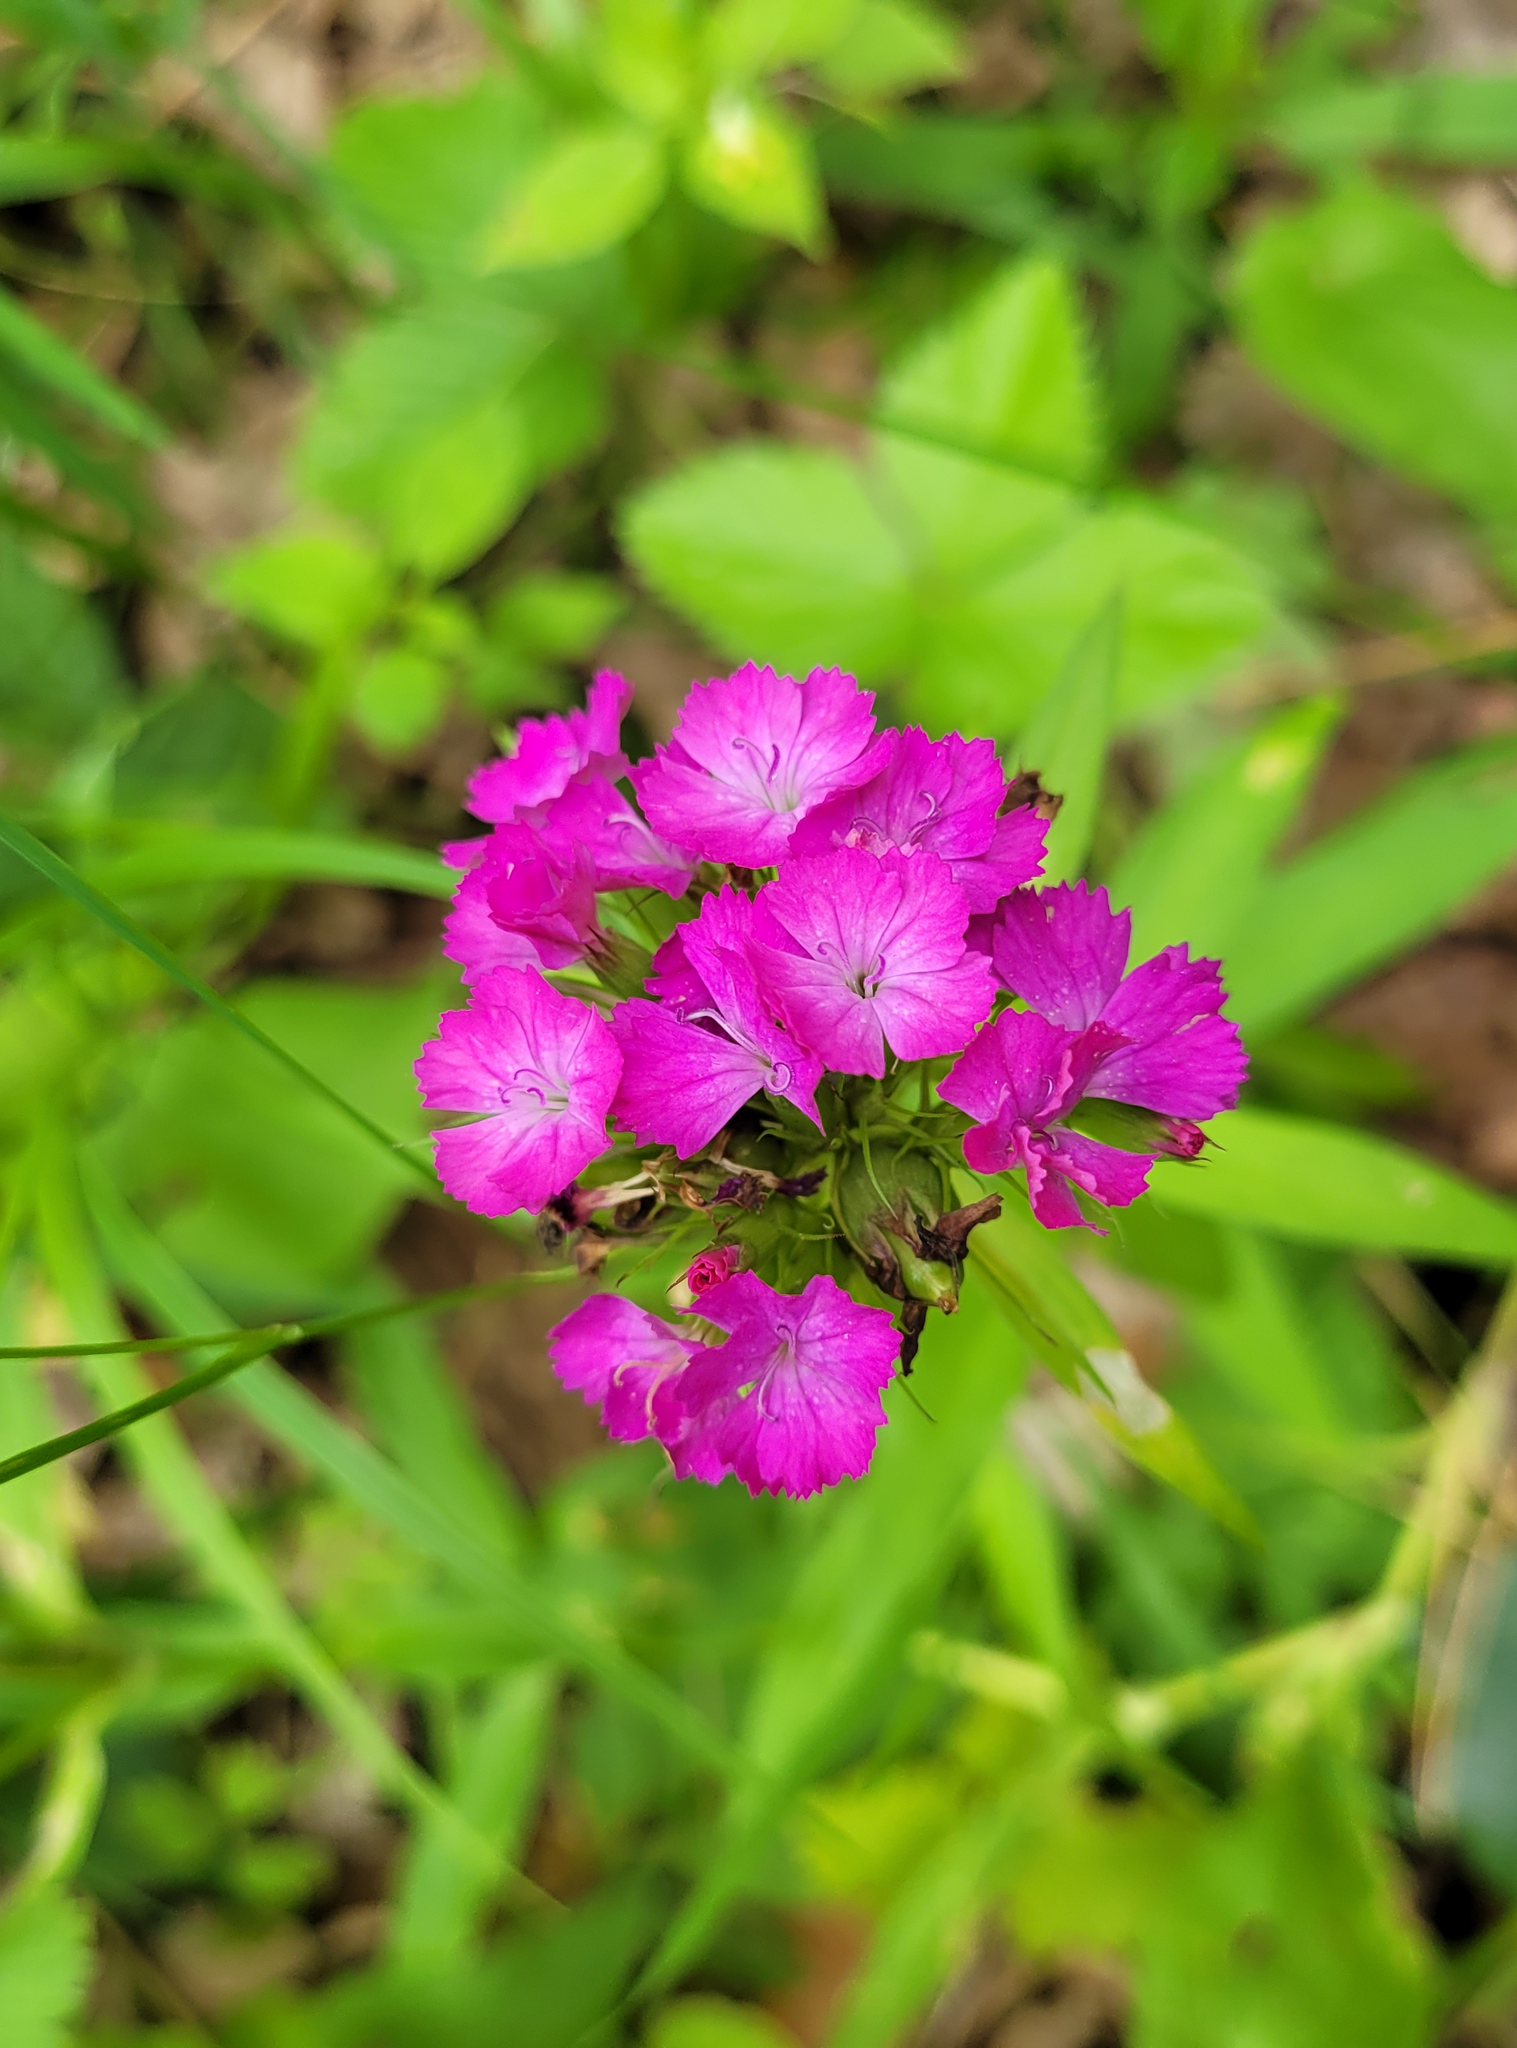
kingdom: Plantae
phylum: Tracheophyta
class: Magnoliopsida
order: Caryophyllales
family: Caryophyllaceae
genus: Dianthus
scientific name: Dianthus barbatus
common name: Sweet-william
